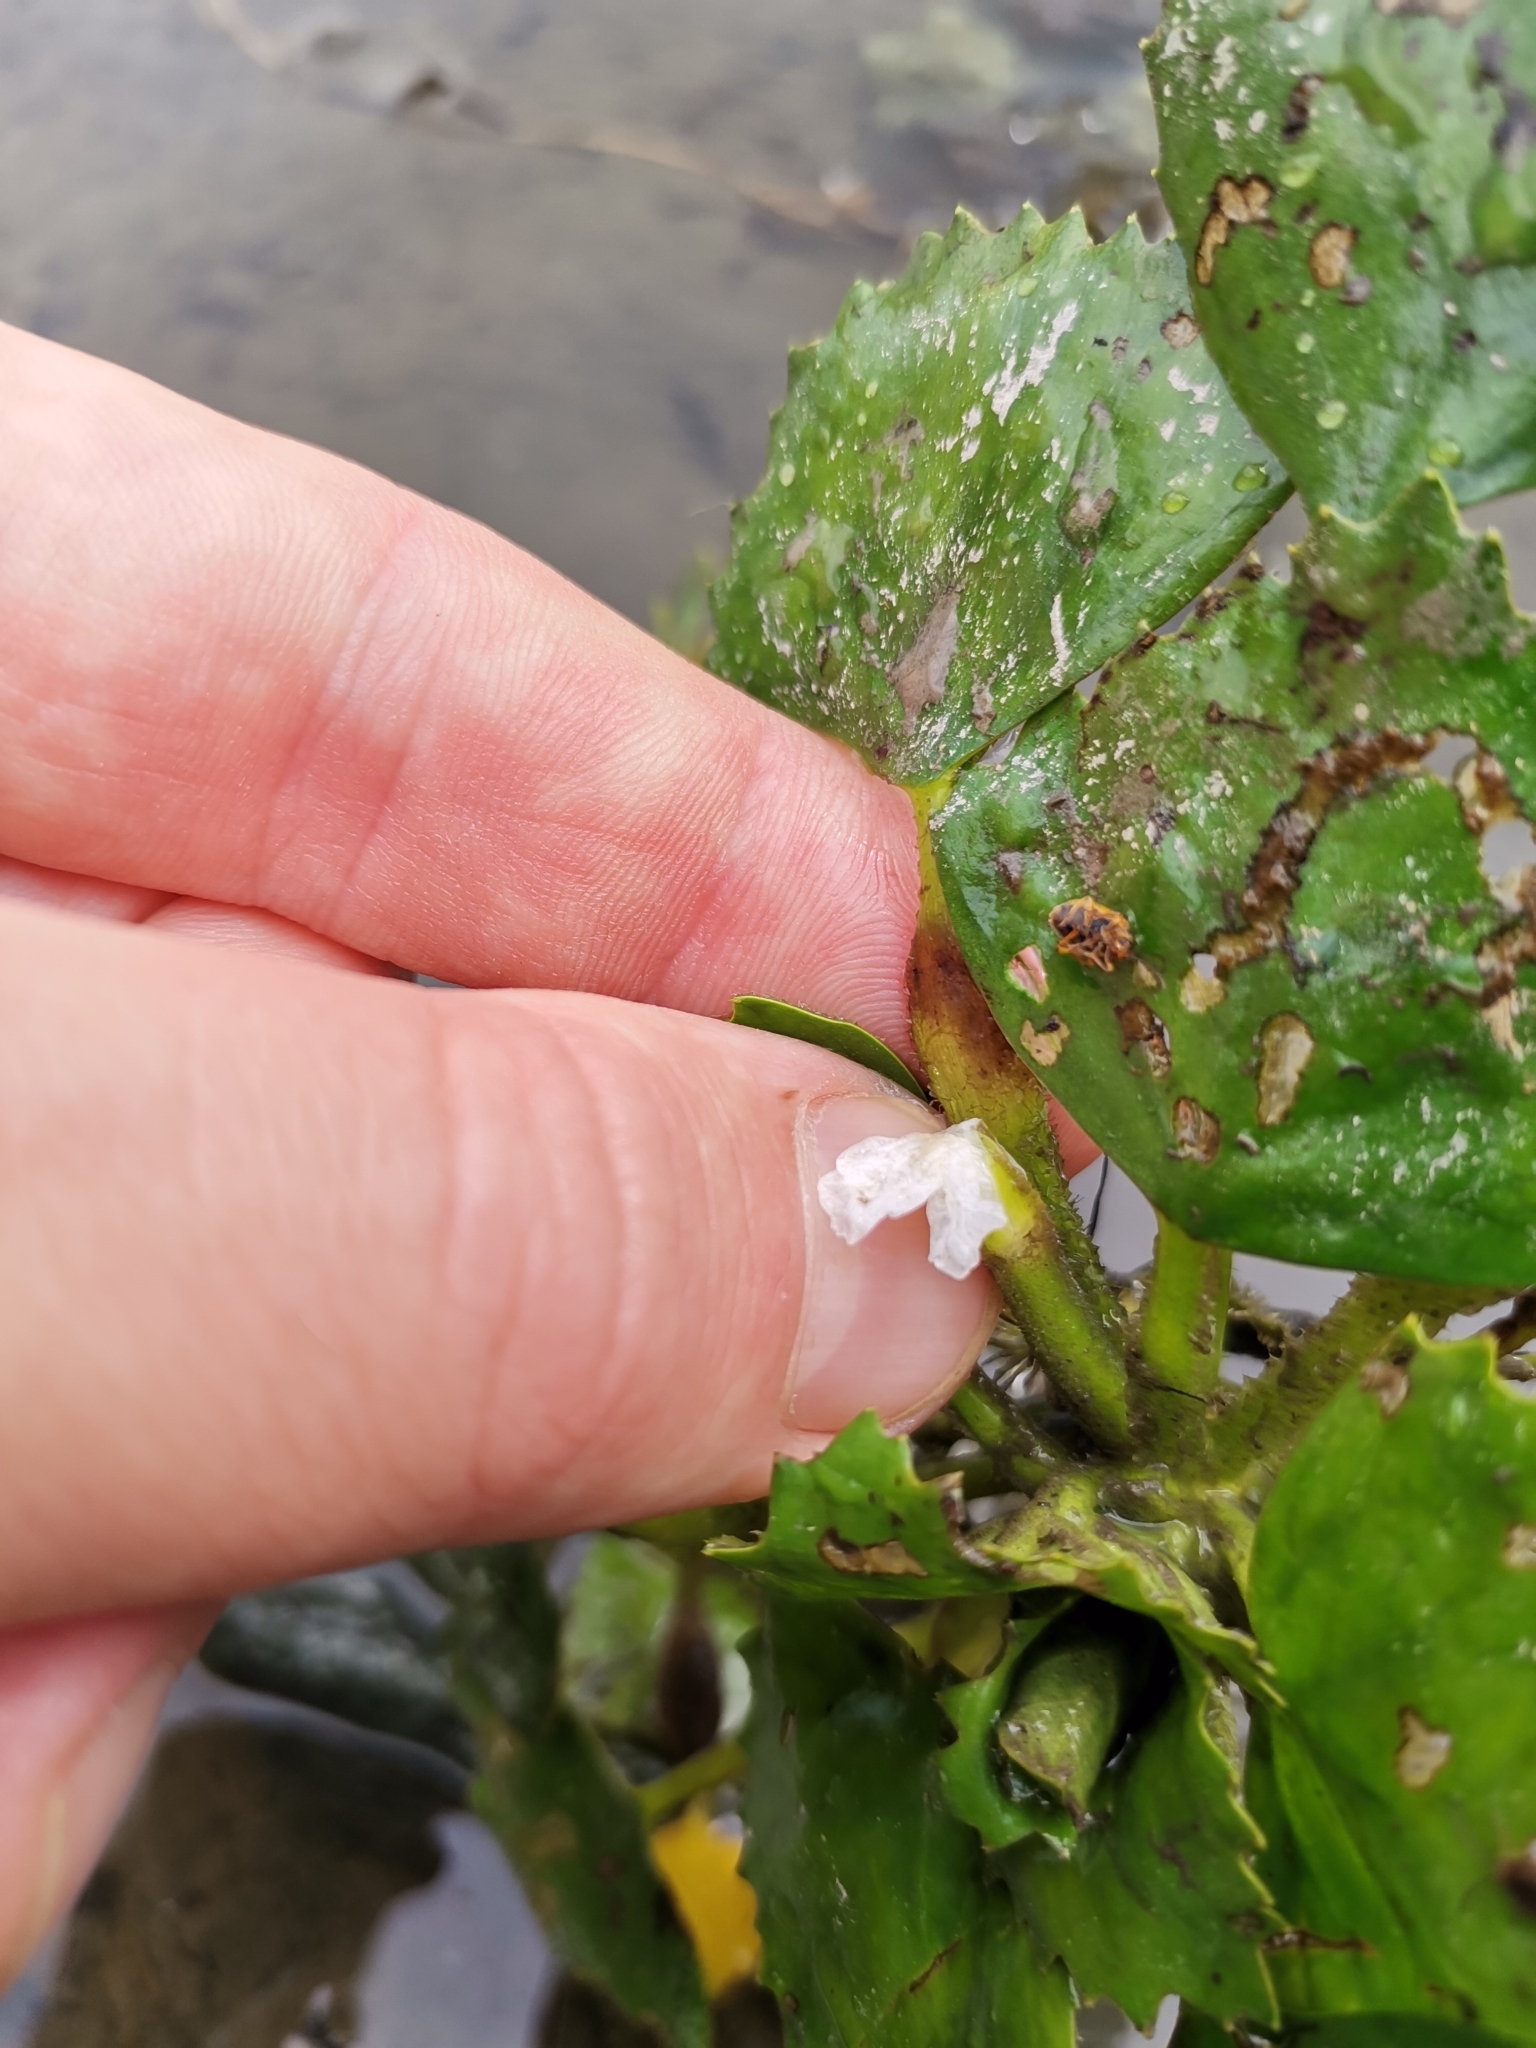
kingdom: Plantae
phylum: Tracheophyta
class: Magnoliopsida
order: Myrtales
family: Lythraceae
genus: Trapa
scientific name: Trapa natans
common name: Water chestnut
